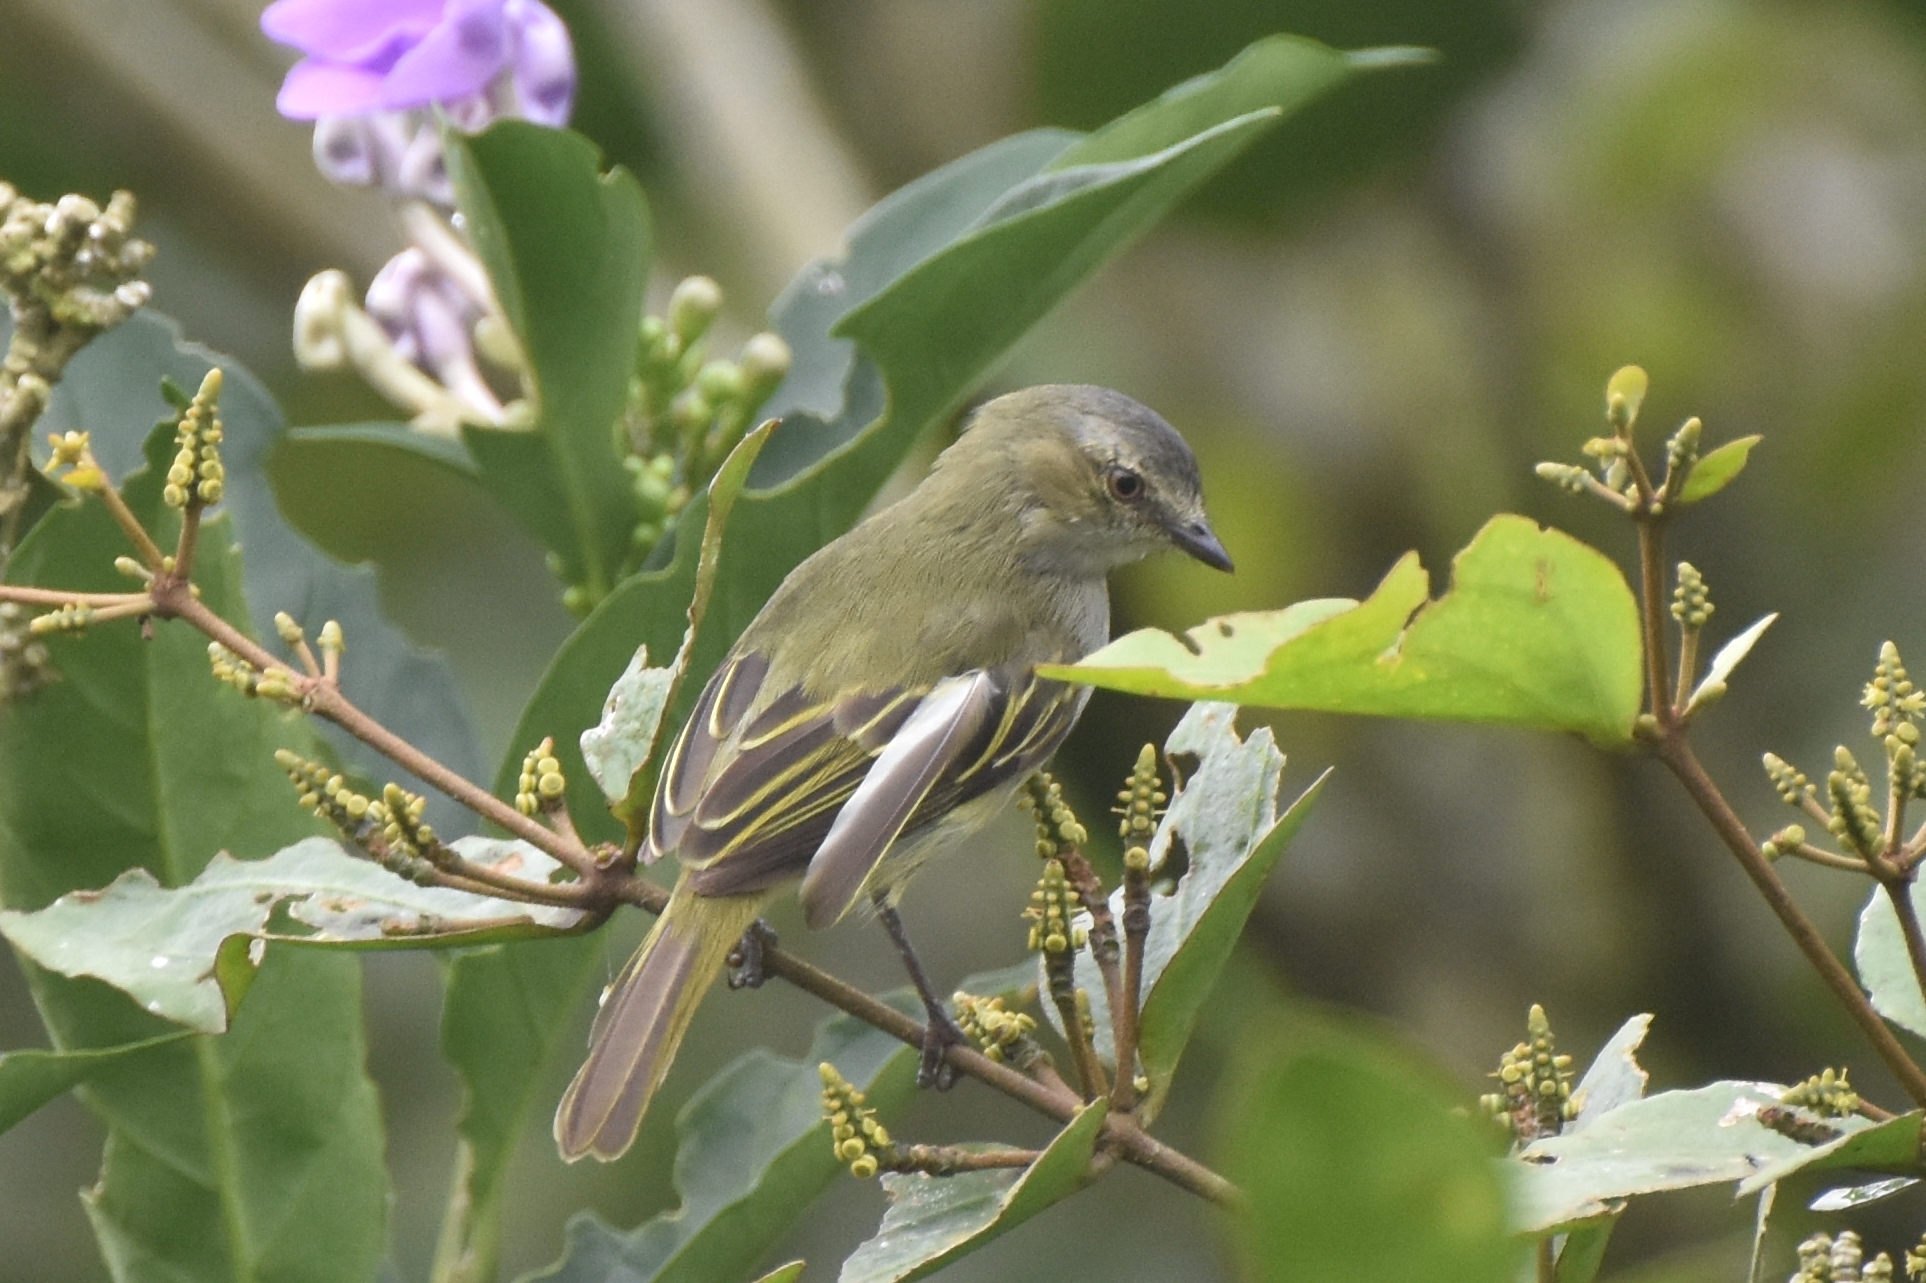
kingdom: Animalia
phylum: Chordata
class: Aves
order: Passeriformes
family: Tyrannidae
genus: Zimmerius
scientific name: Zimmerius vilissimus
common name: Paltry tyrannulet
